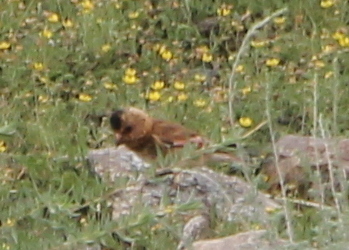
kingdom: Animalia
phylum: Chordata
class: Aves
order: Passeriformes
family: Fringillidae
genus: Rhodopechys
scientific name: Rhodopechys sanguineus
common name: Crimson-winged finch
